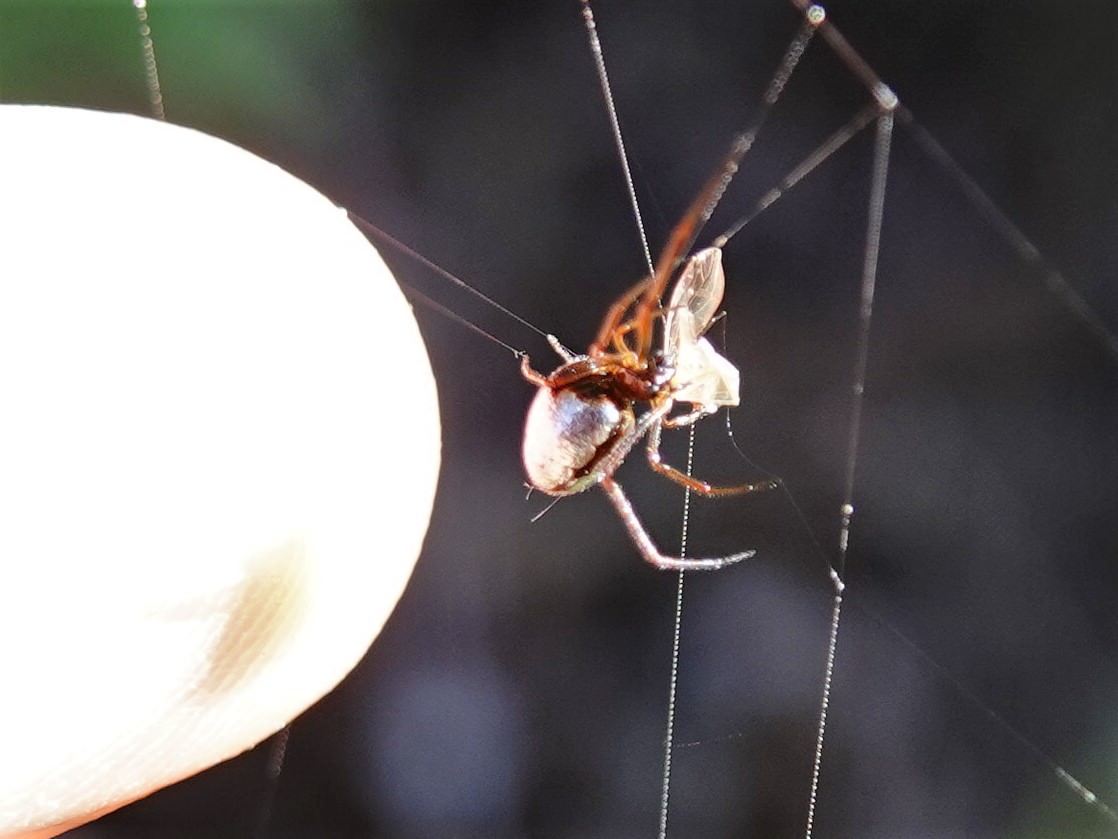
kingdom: Animalia
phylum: Arthropoda
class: Arachnida
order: Araneae
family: Theridiidae
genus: Argyrodes
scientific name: Argyrodes antipodianus
